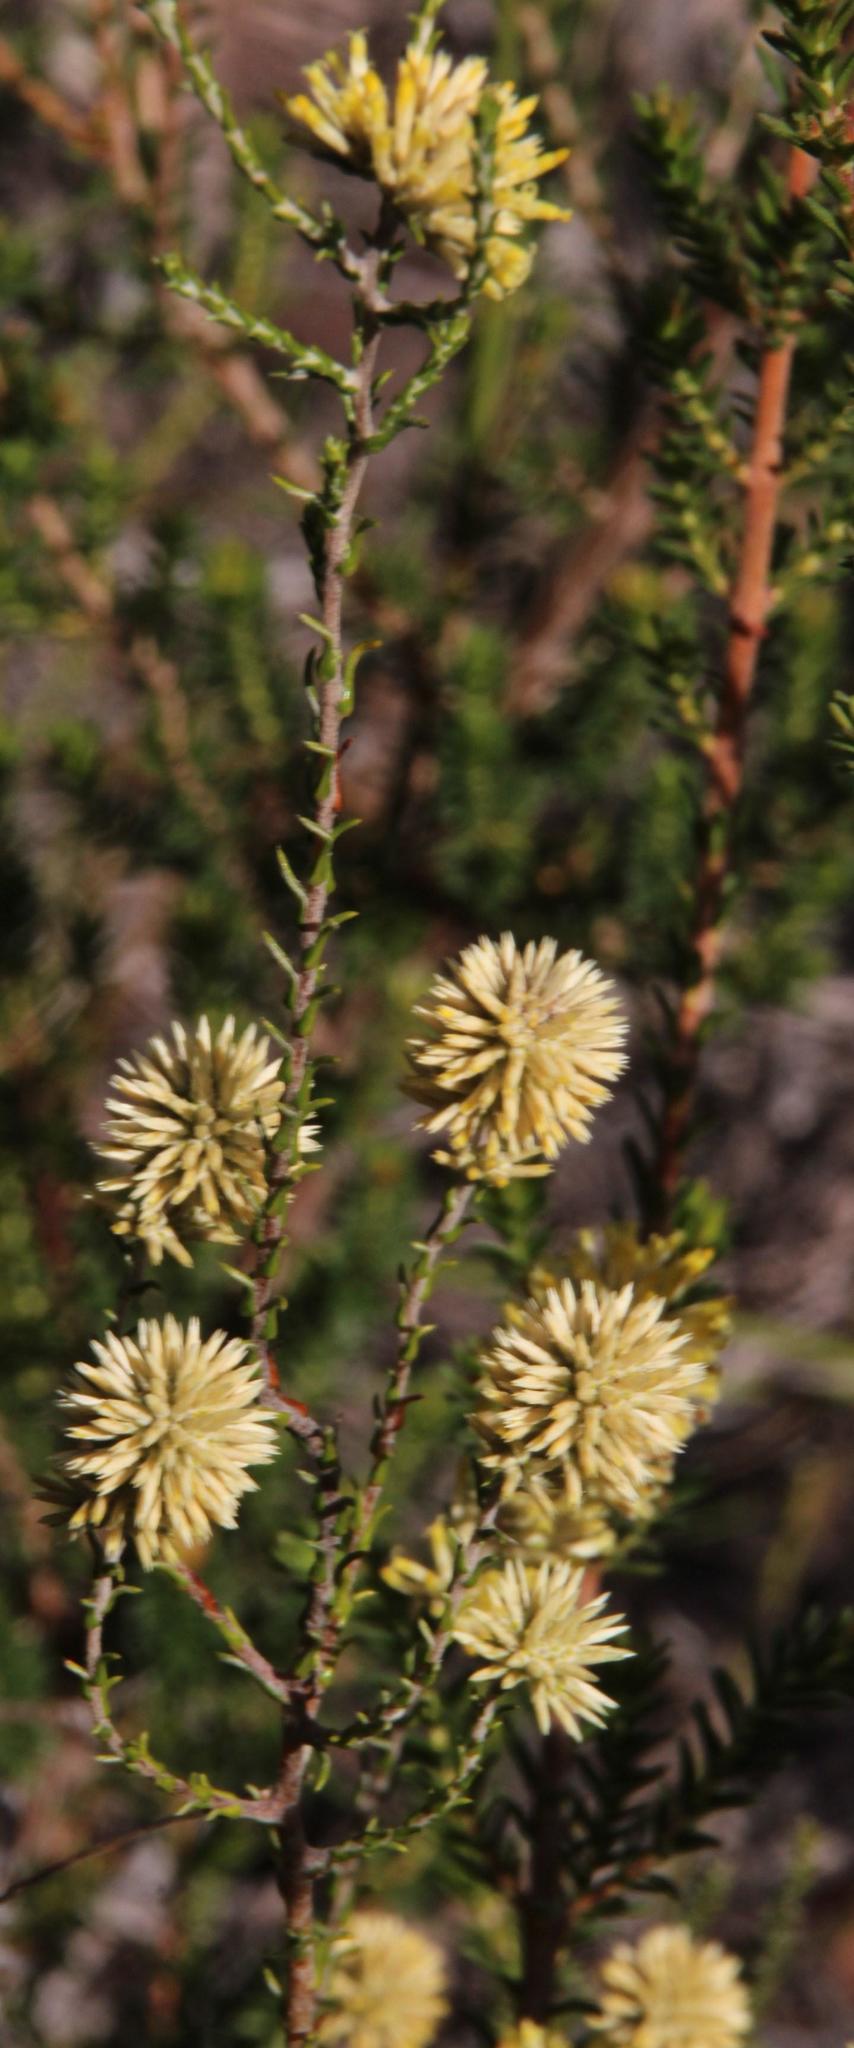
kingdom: Plantae
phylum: Tracheophyta
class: Magnoliopsida
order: Asterales
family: Asteraceae
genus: Seriphium
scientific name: Seriphium spirale
